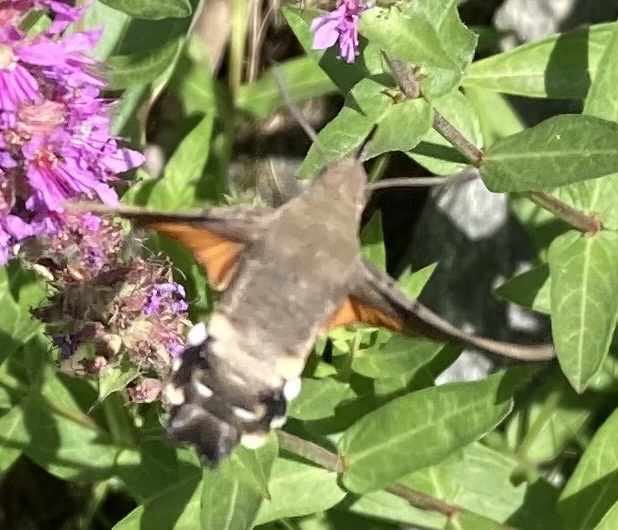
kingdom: Animalia
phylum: Arthropoda
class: Insecta
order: Lepidoptera
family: Sphingidae
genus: Macroglossum
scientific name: Macroglossum stellatarum
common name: Humming-bird hawk-moth
